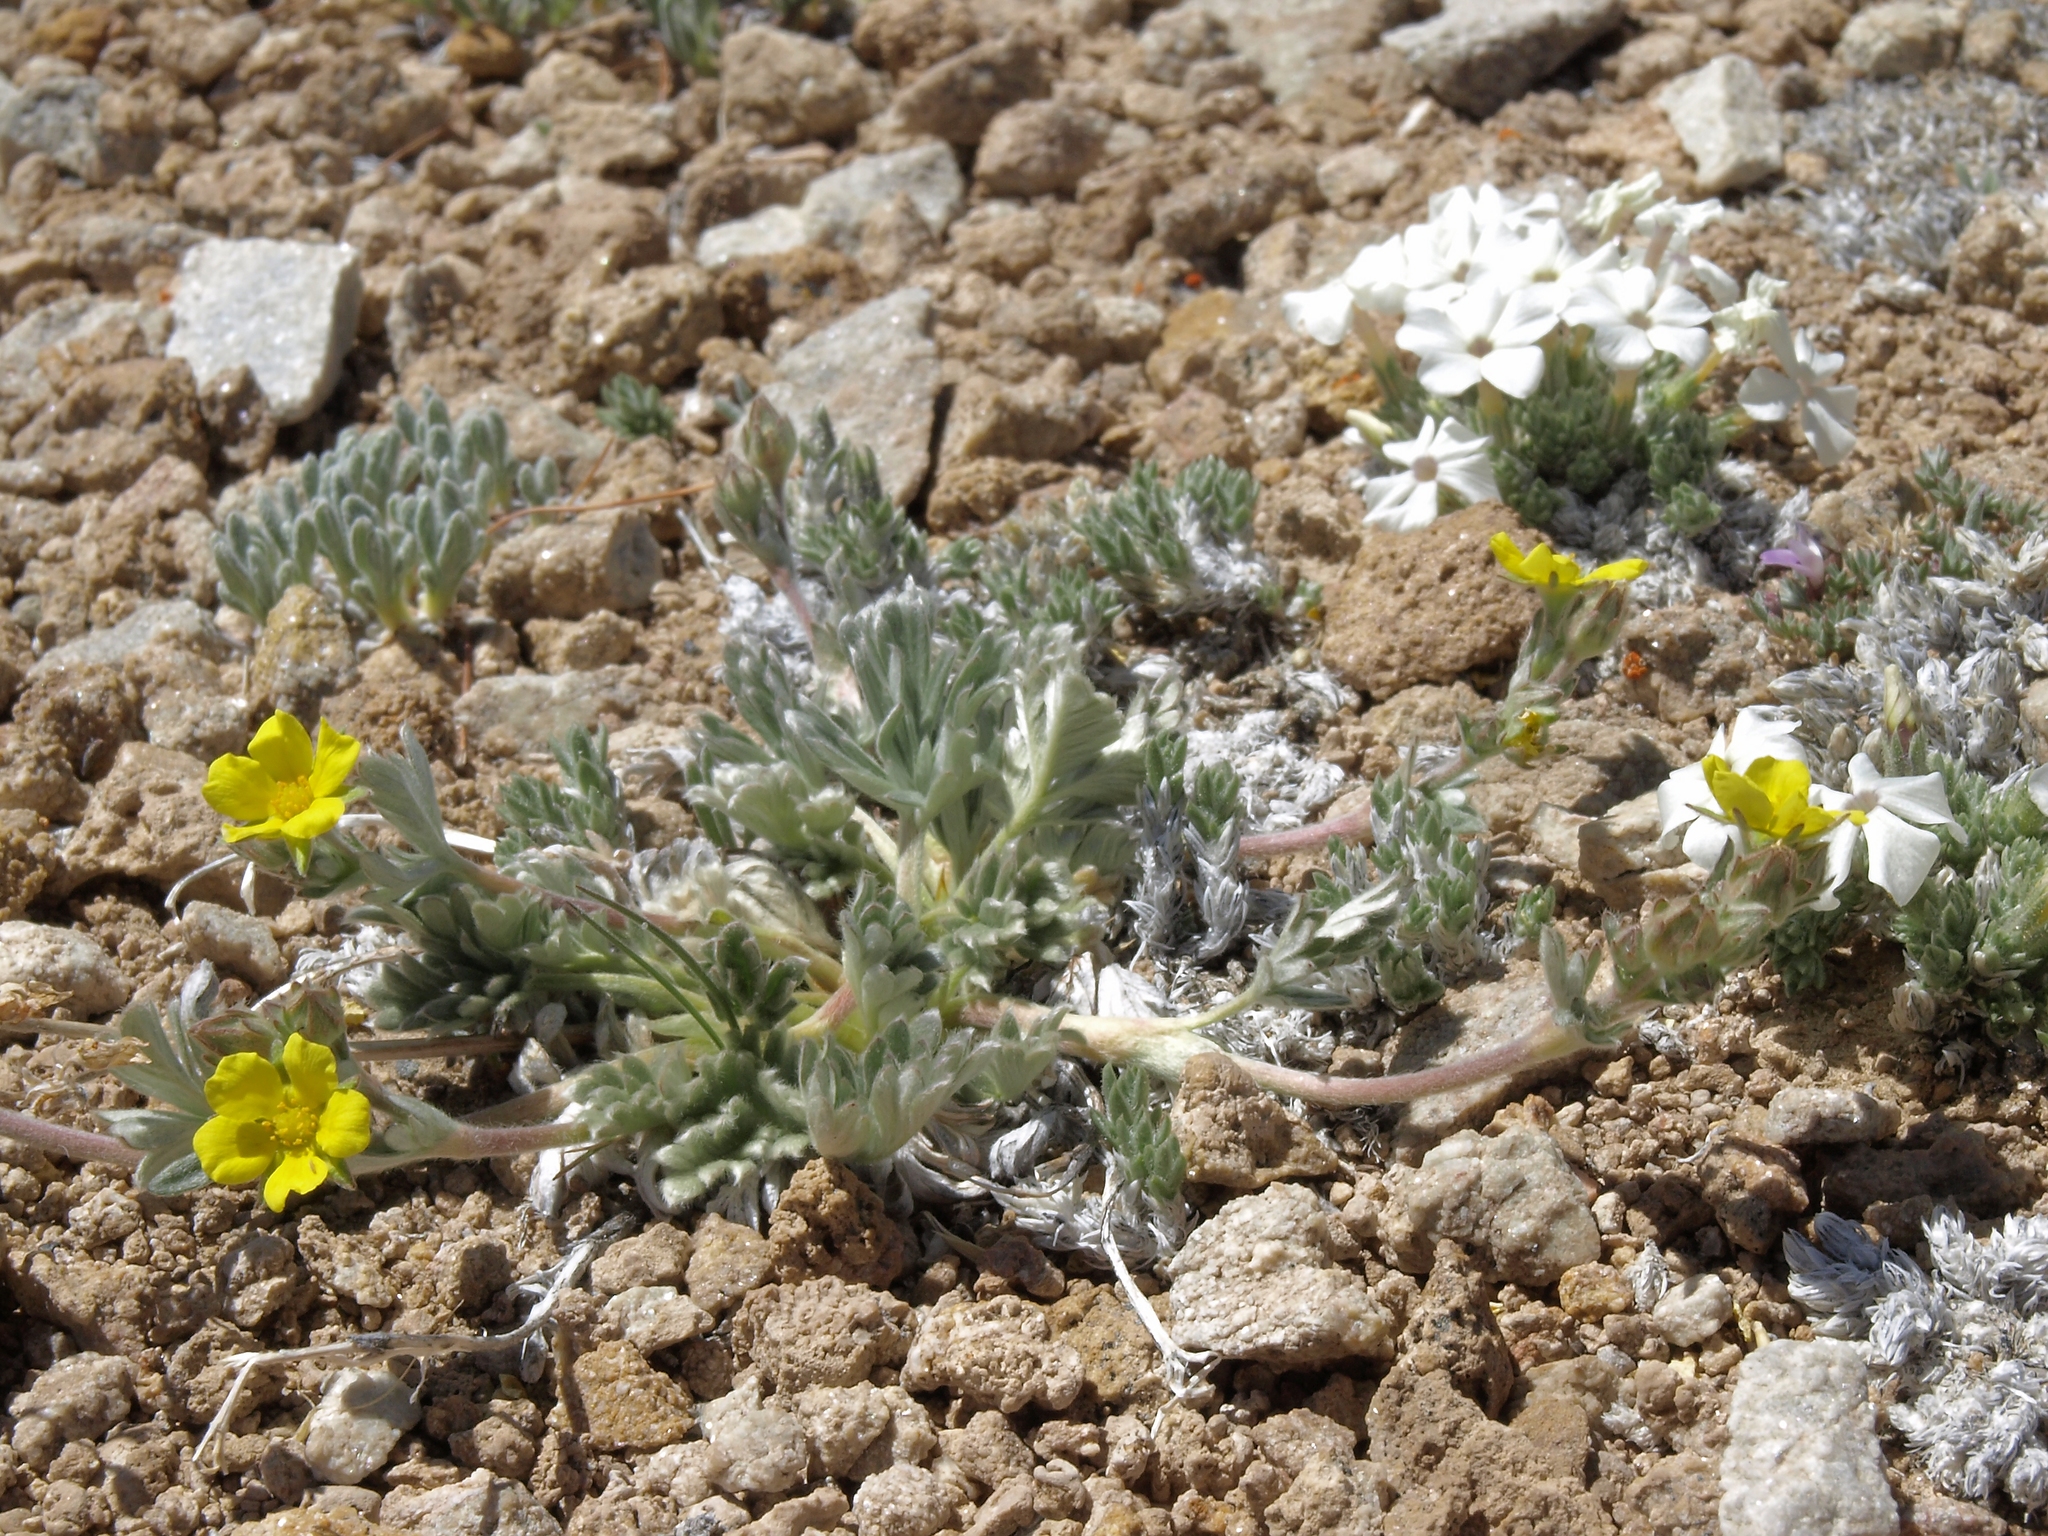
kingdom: Plantae
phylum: Tracheophyta
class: Magnoliopsida
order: Rosales
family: Rosaceae
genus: Potentilla
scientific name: Potentilla pseudosericea
